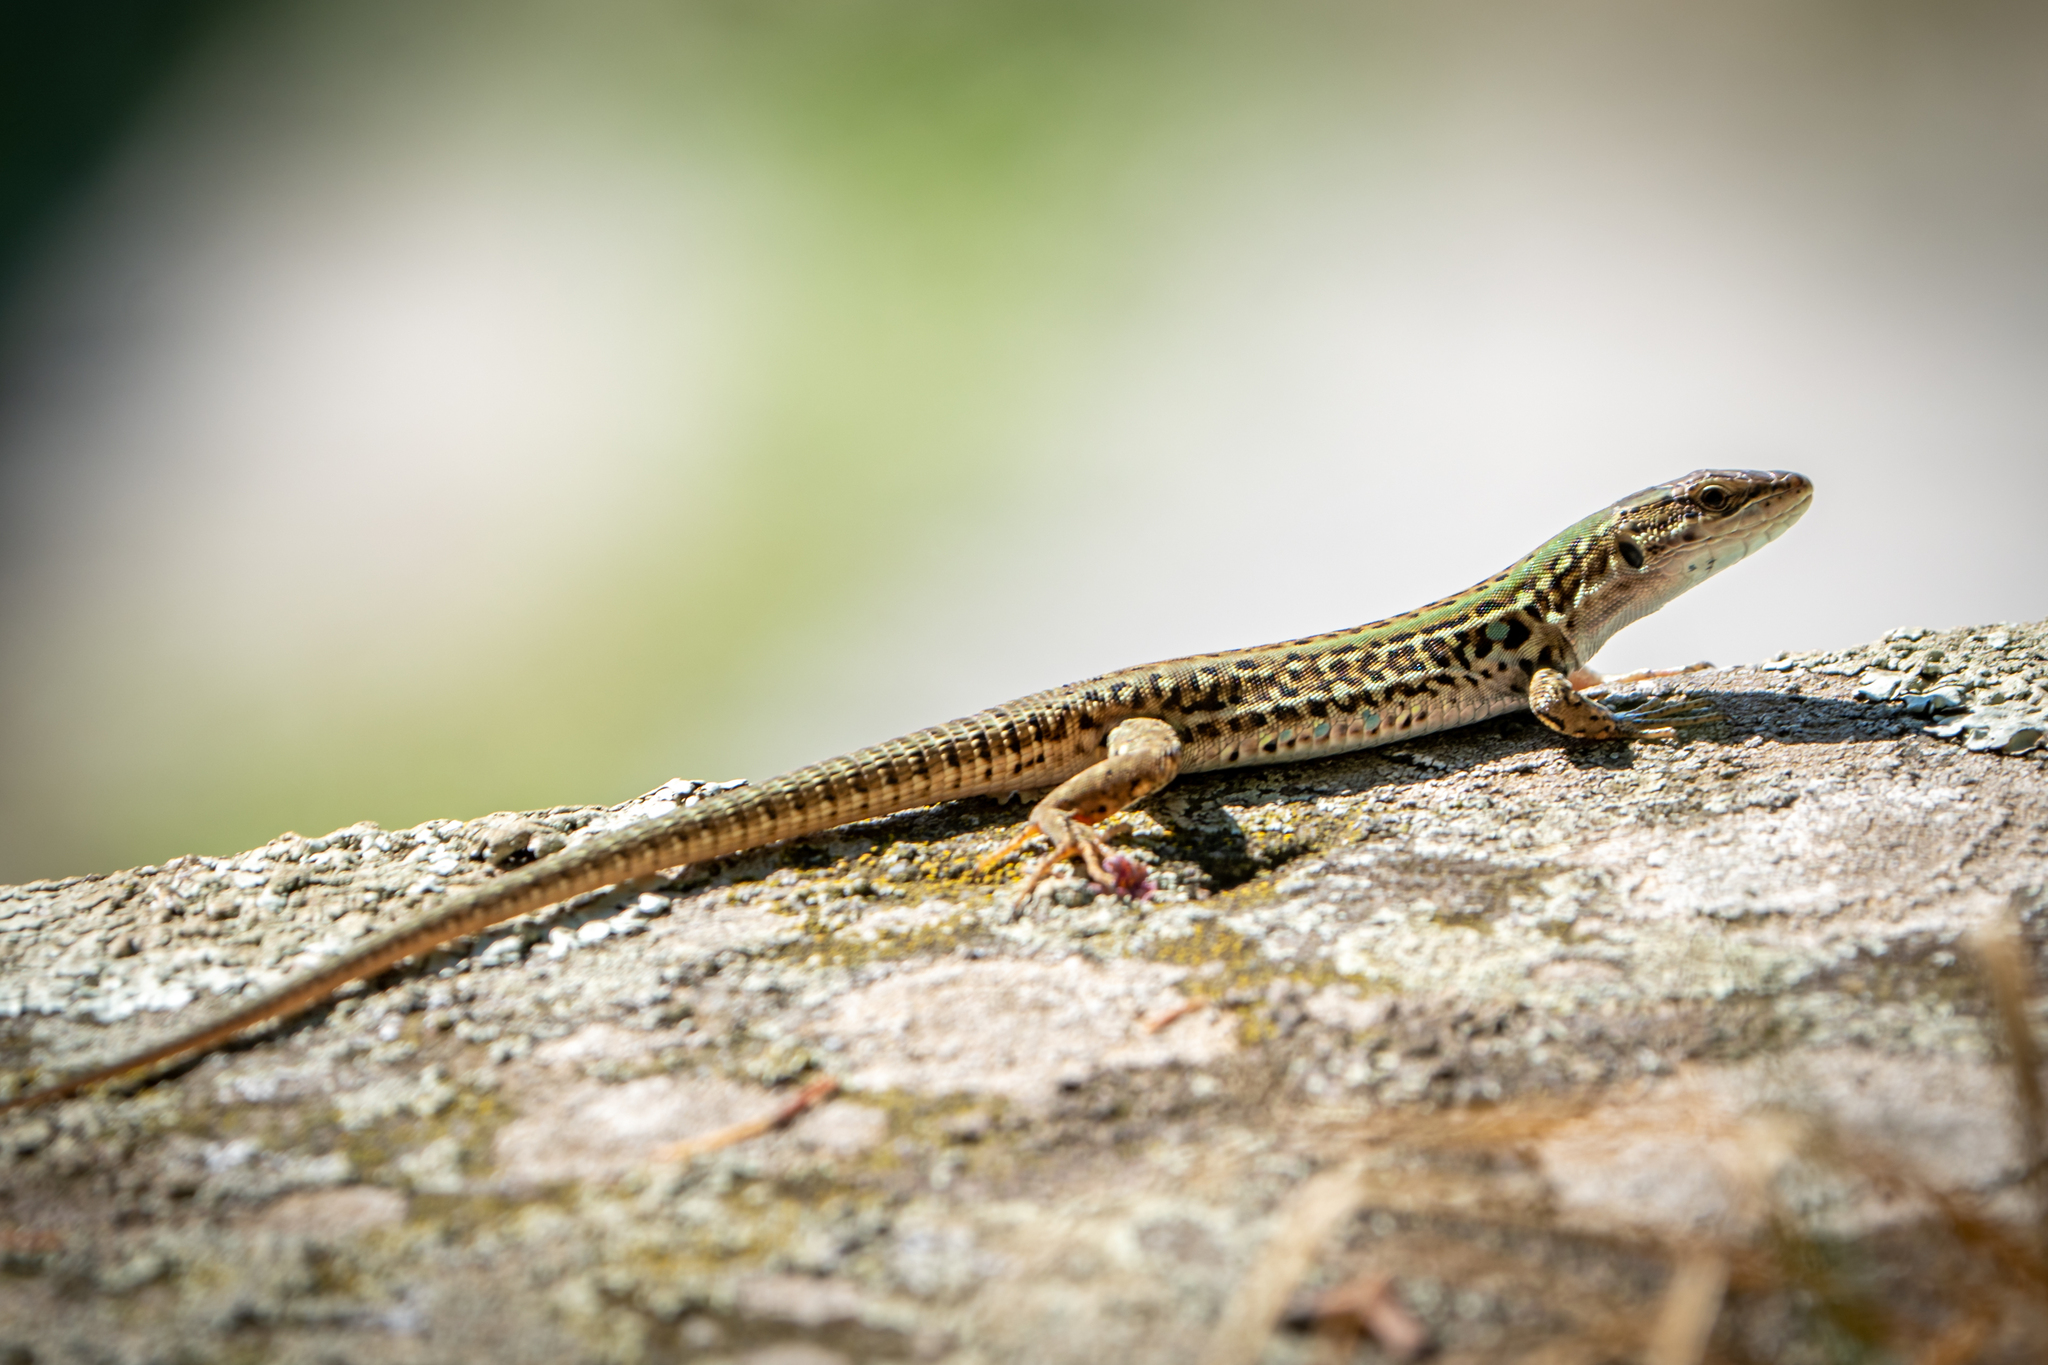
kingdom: Animalia
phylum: Chordata
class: Squamata
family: Lacertidae
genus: Podarcis
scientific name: Podarcis siculus
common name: Italian wall lizard
